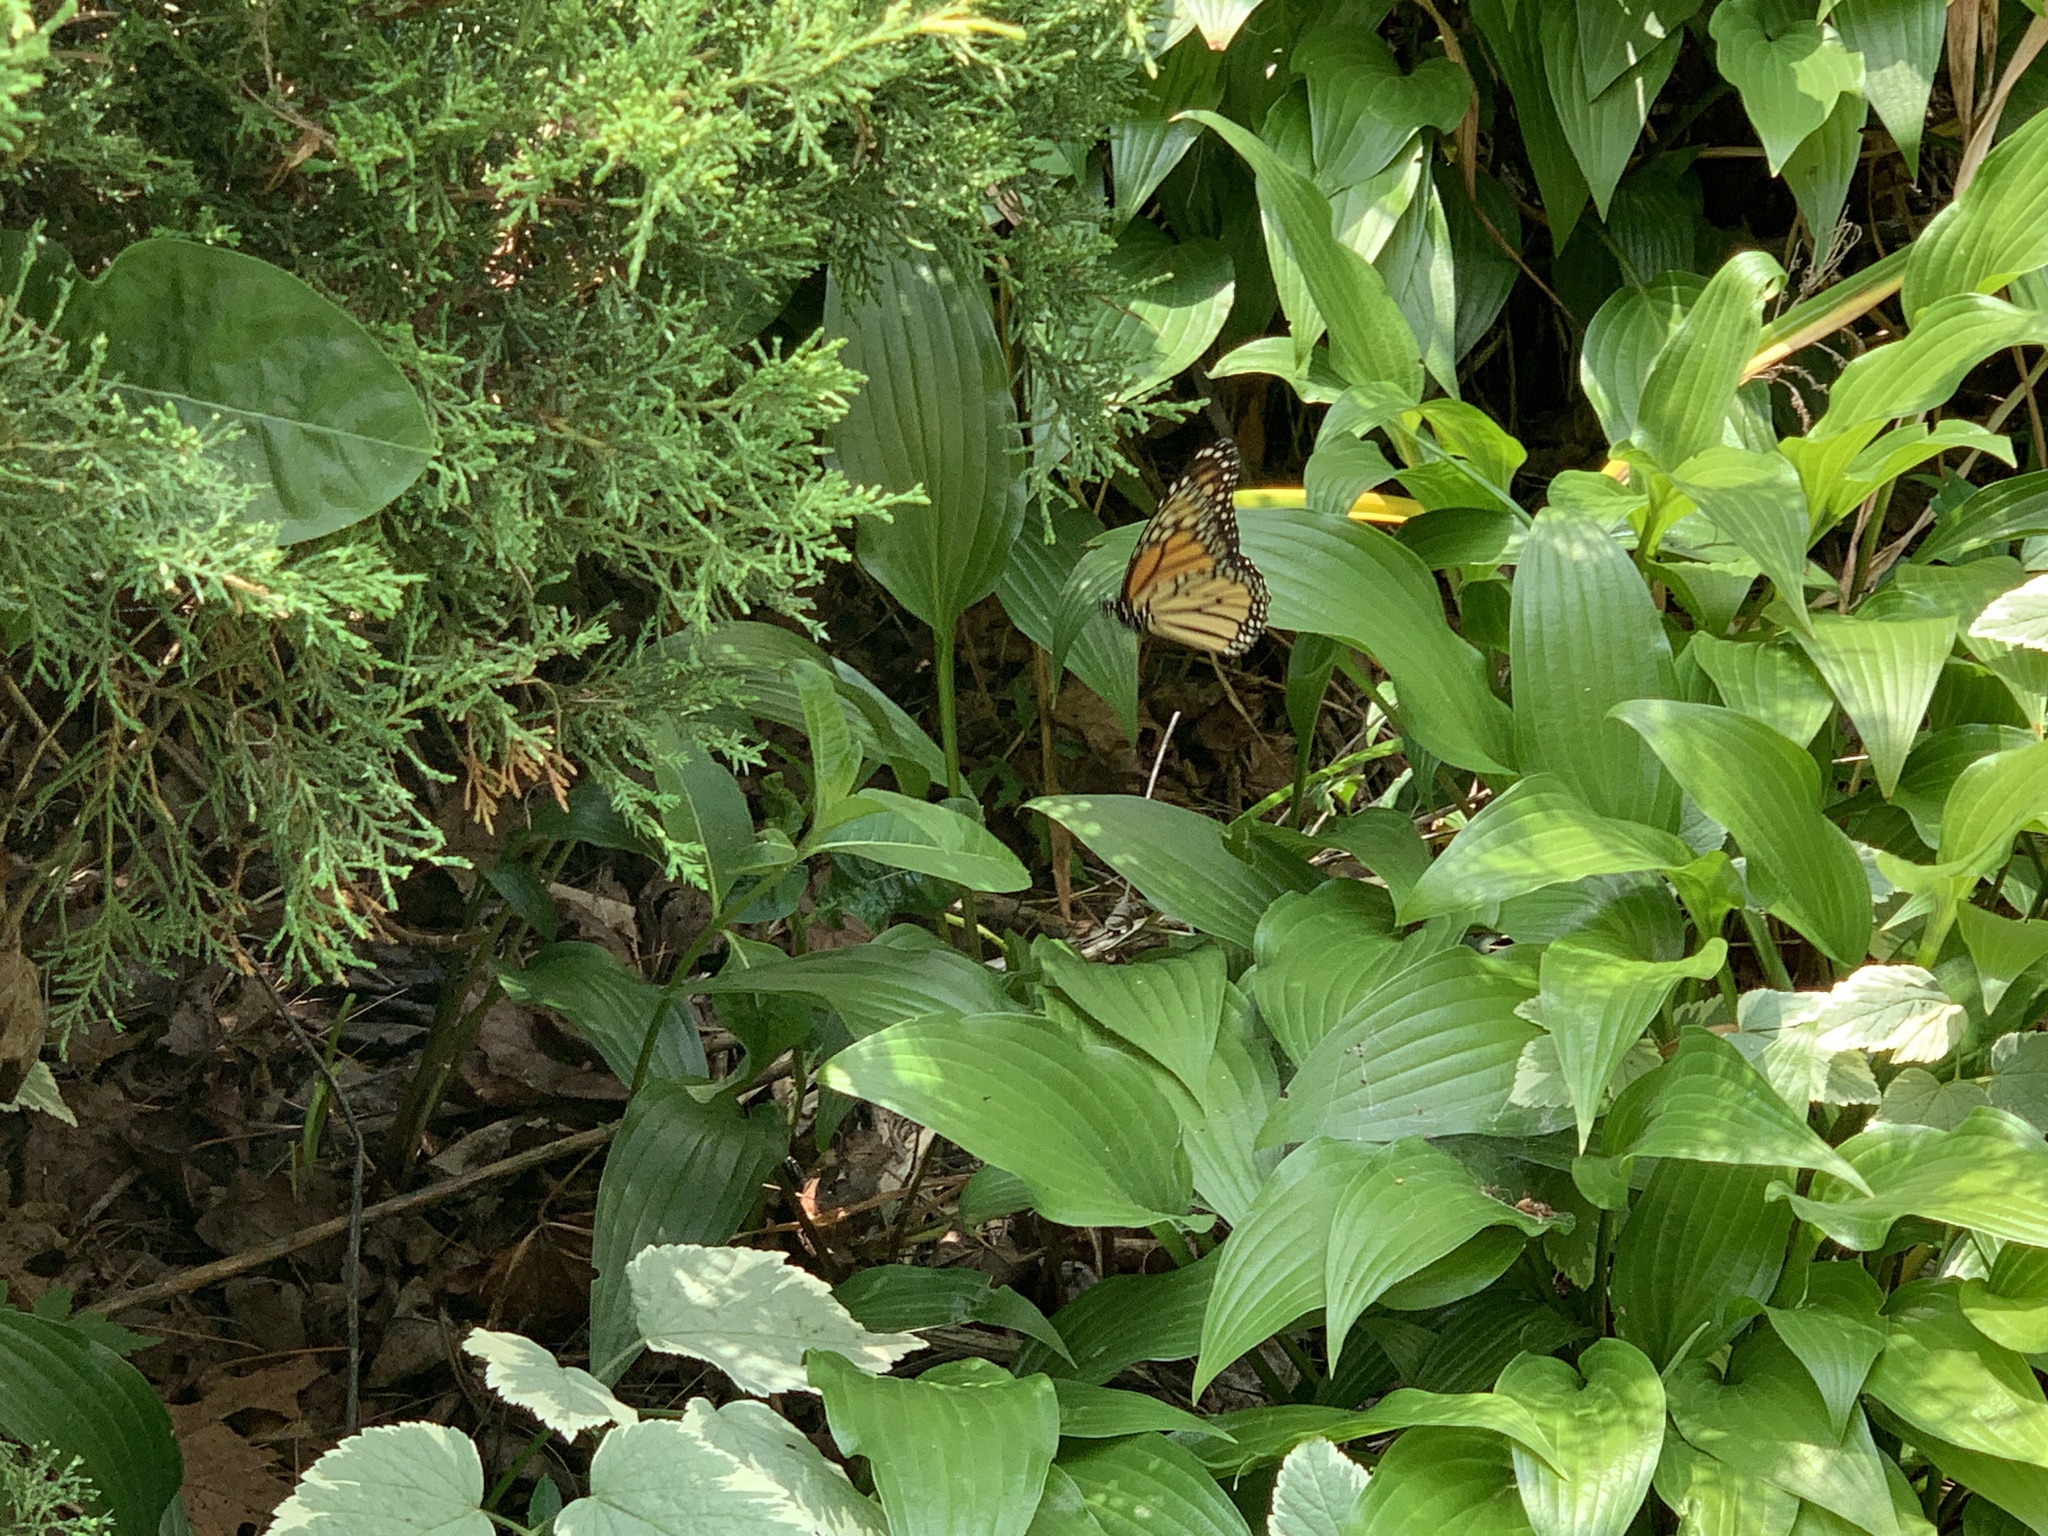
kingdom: Animalia
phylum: Arthropoda
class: Insecta
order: Lepidoptera
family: Nymphalidae
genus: Danaus
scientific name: Danaus plexippus
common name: Monarch
